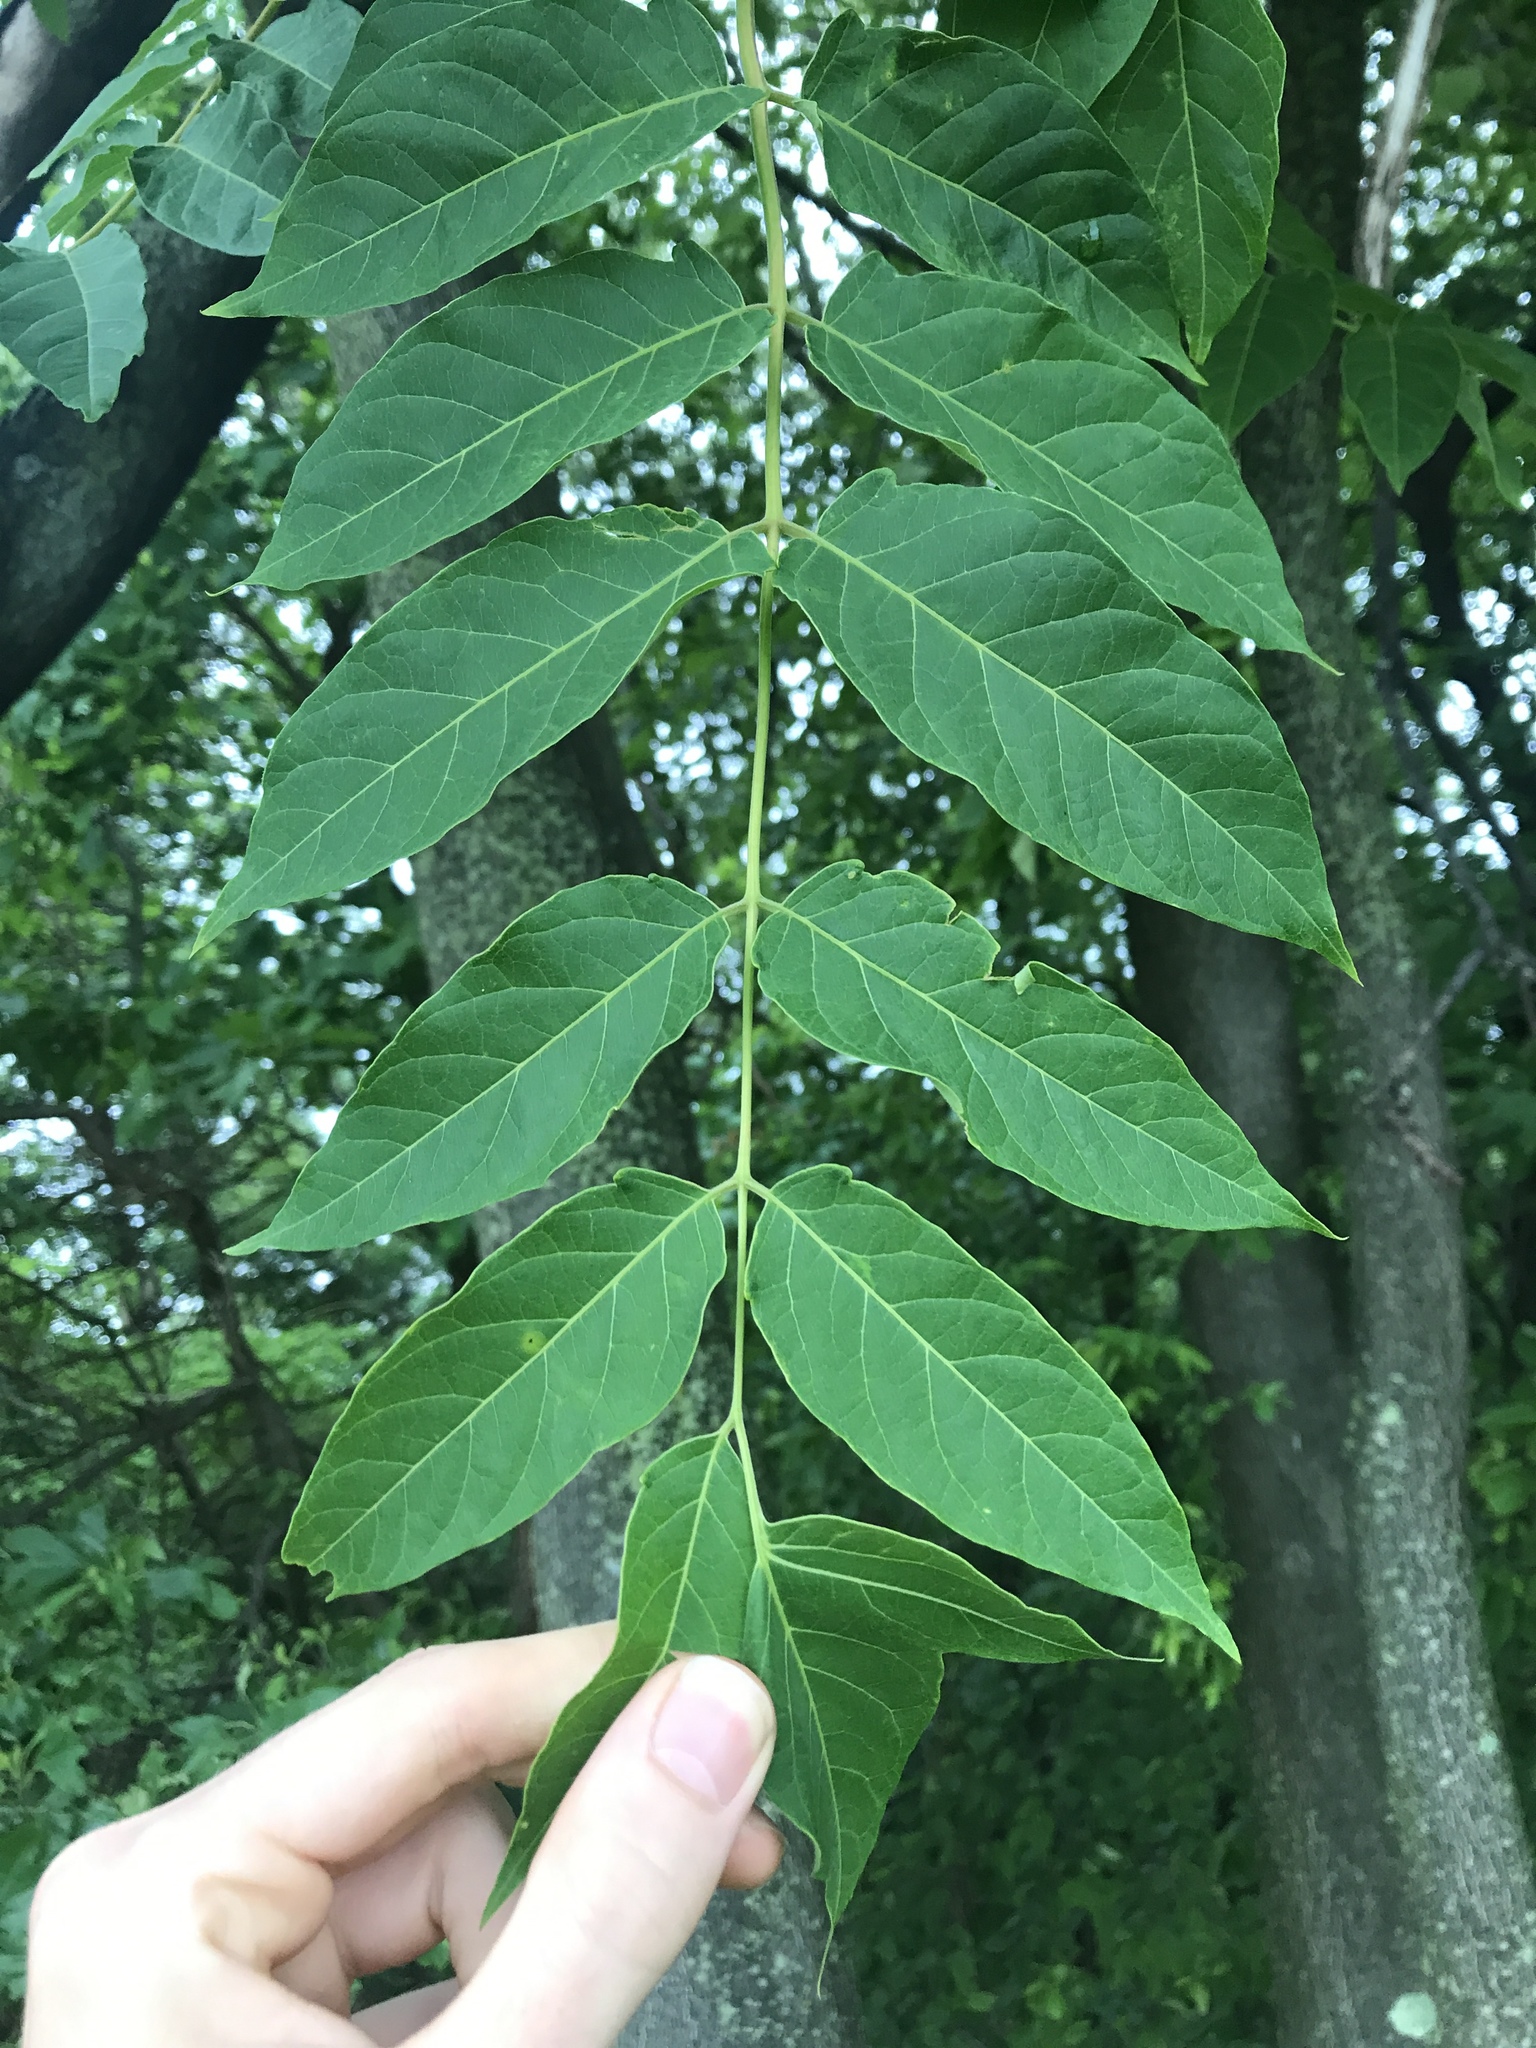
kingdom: Plantae
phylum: Tracheophyta
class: Magnoliopsida
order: Sapindales
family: Simaroubaceae
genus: Ailanthus
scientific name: Ailanthus altissima
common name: Tree-of-heaven
